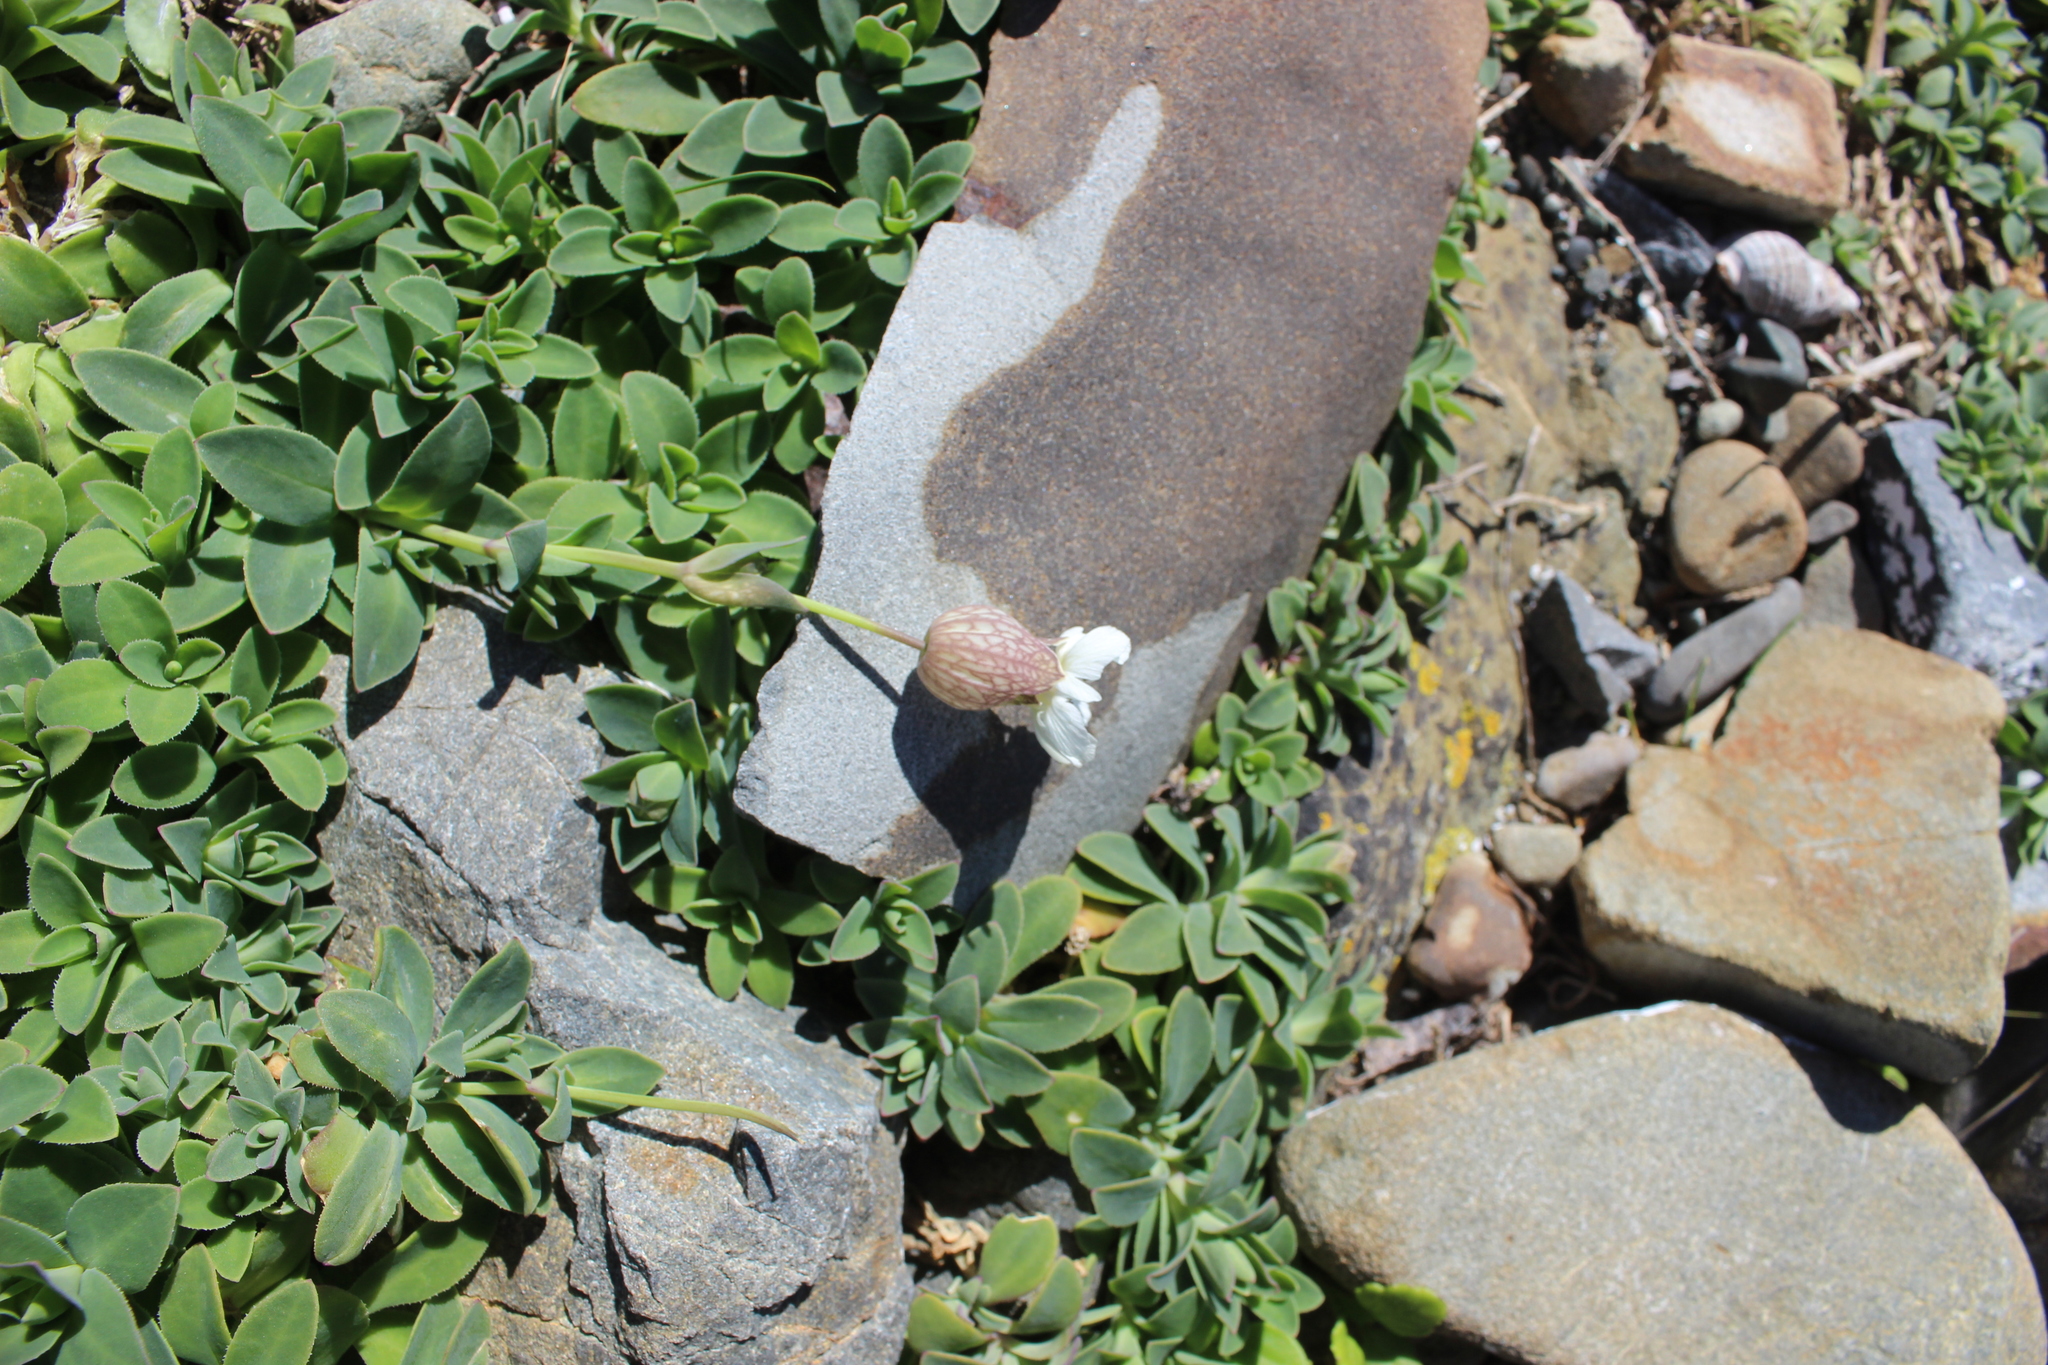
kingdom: Plantae
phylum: Tracheophyta
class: Magnoliopsida
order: Caryophyllales
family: Caryophyllaceae
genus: Silene
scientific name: Silene uniflora
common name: Sea campion
